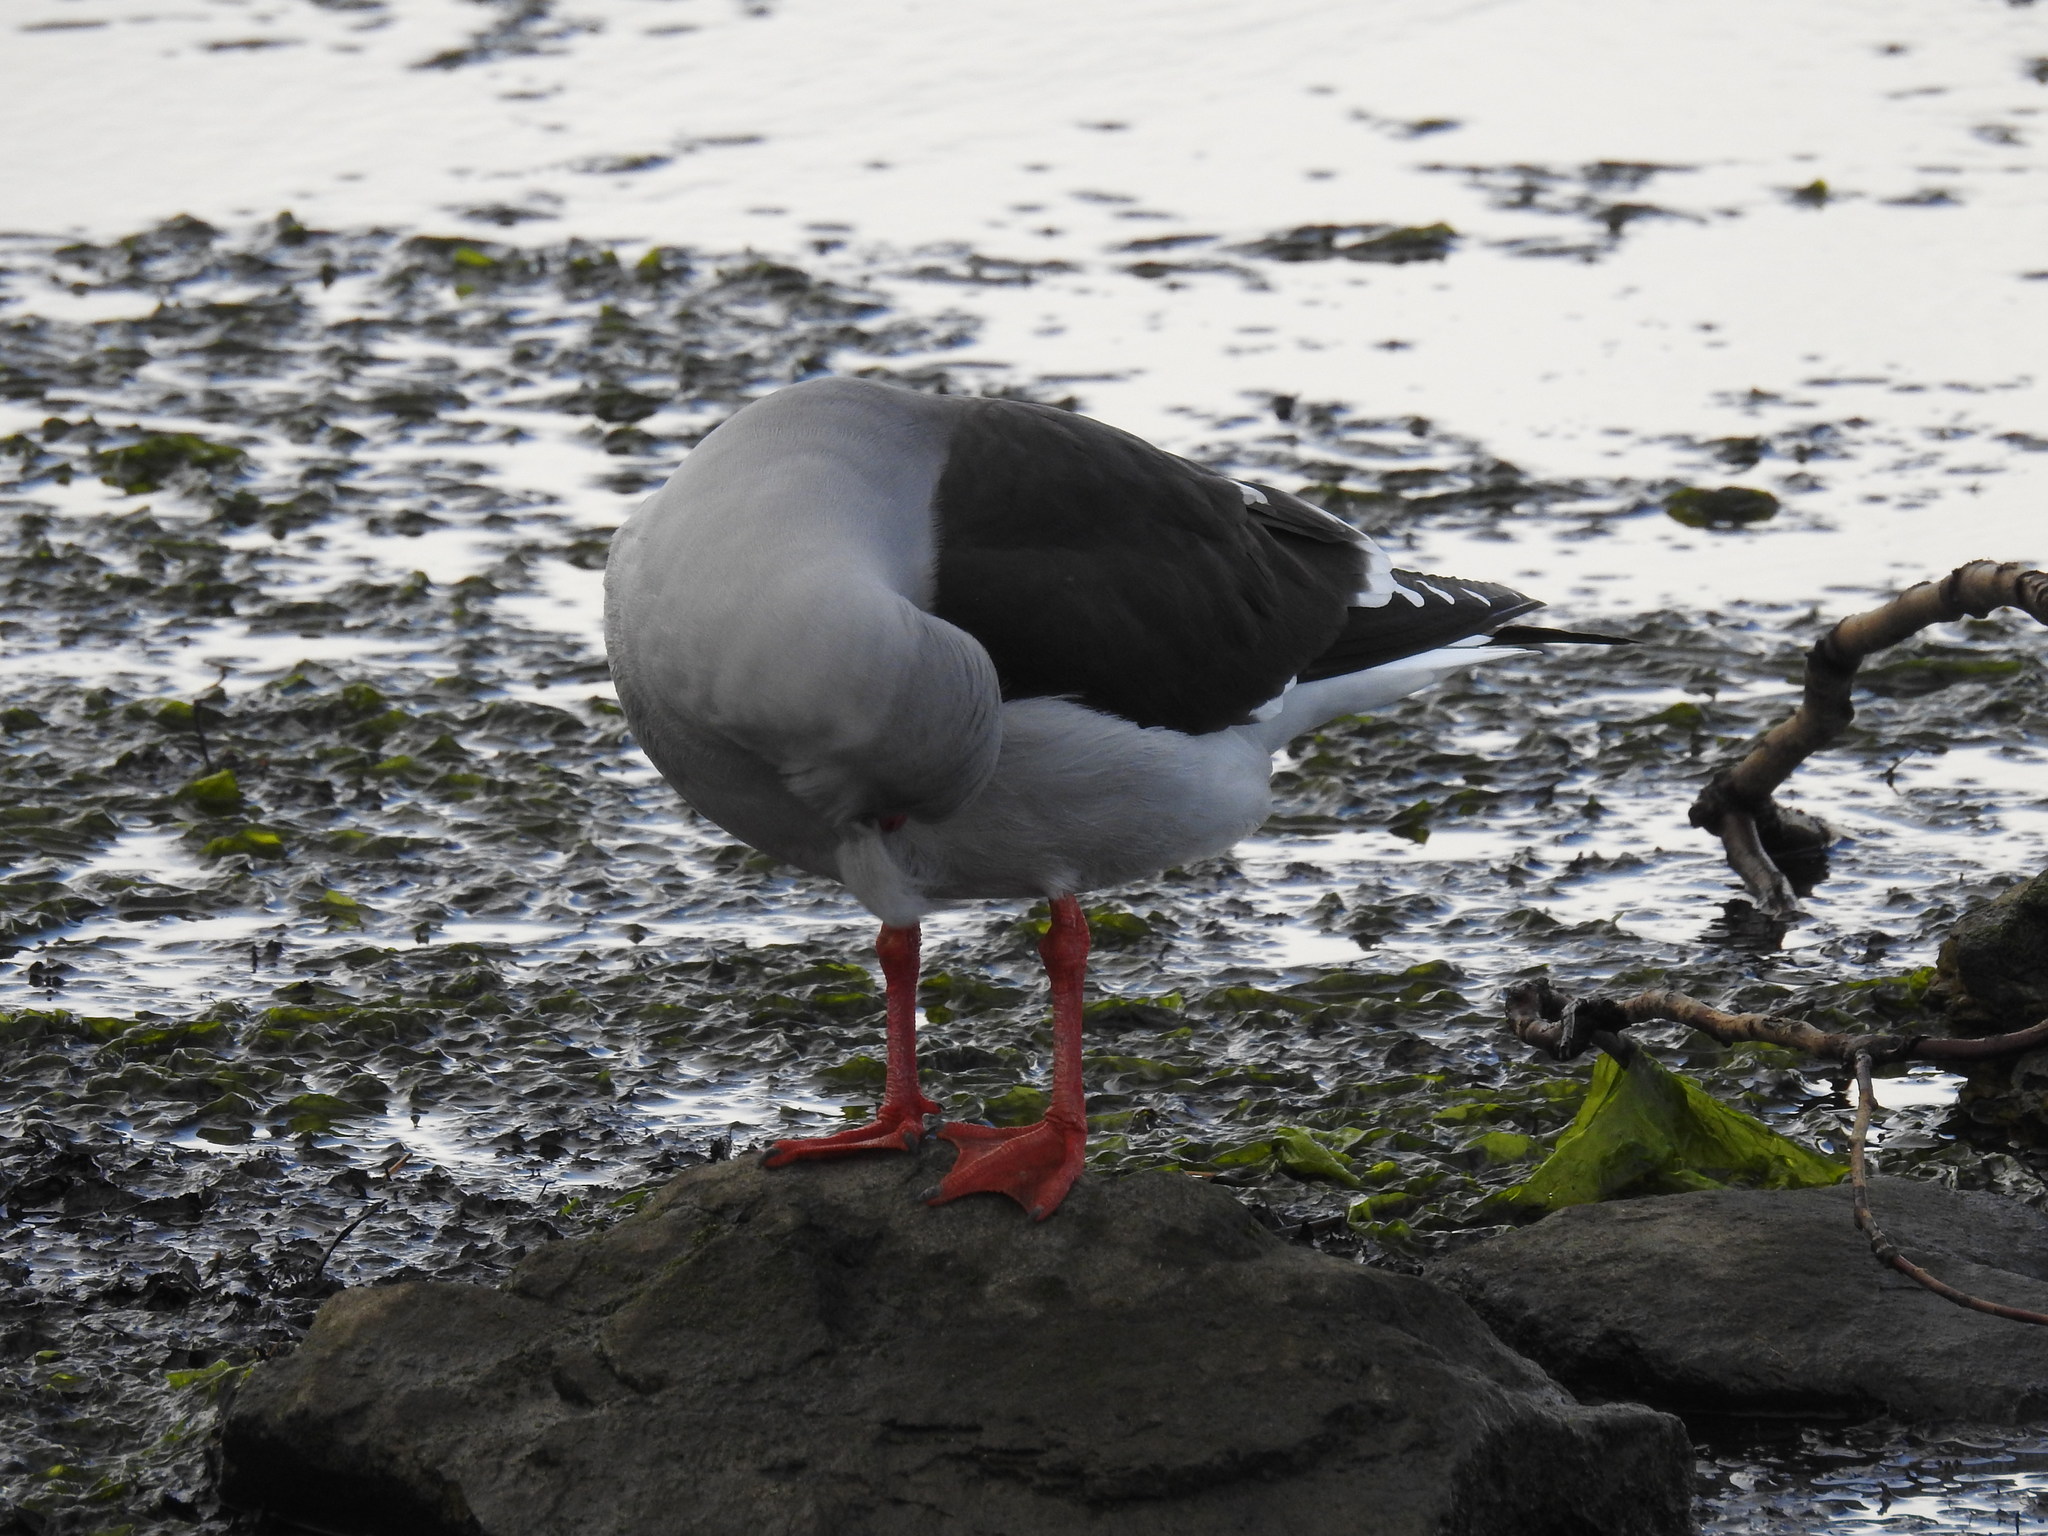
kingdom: Animalia
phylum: Chordata
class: Aves
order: Charadriiformes
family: Laridae
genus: Leucophaeus
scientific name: Leucophaeus scoresbii
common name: Dolphin gull
